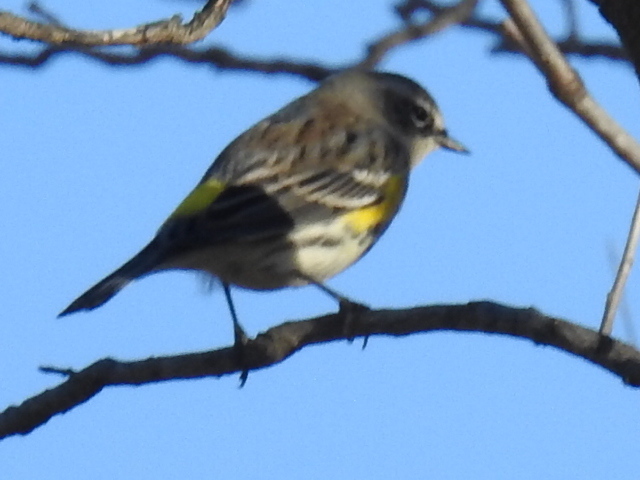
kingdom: Animalia
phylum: Chordata
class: Aves
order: Passeriformes
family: Parulidae
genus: Setophaga
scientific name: Setophaga coronata
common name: Myrtle warbler
